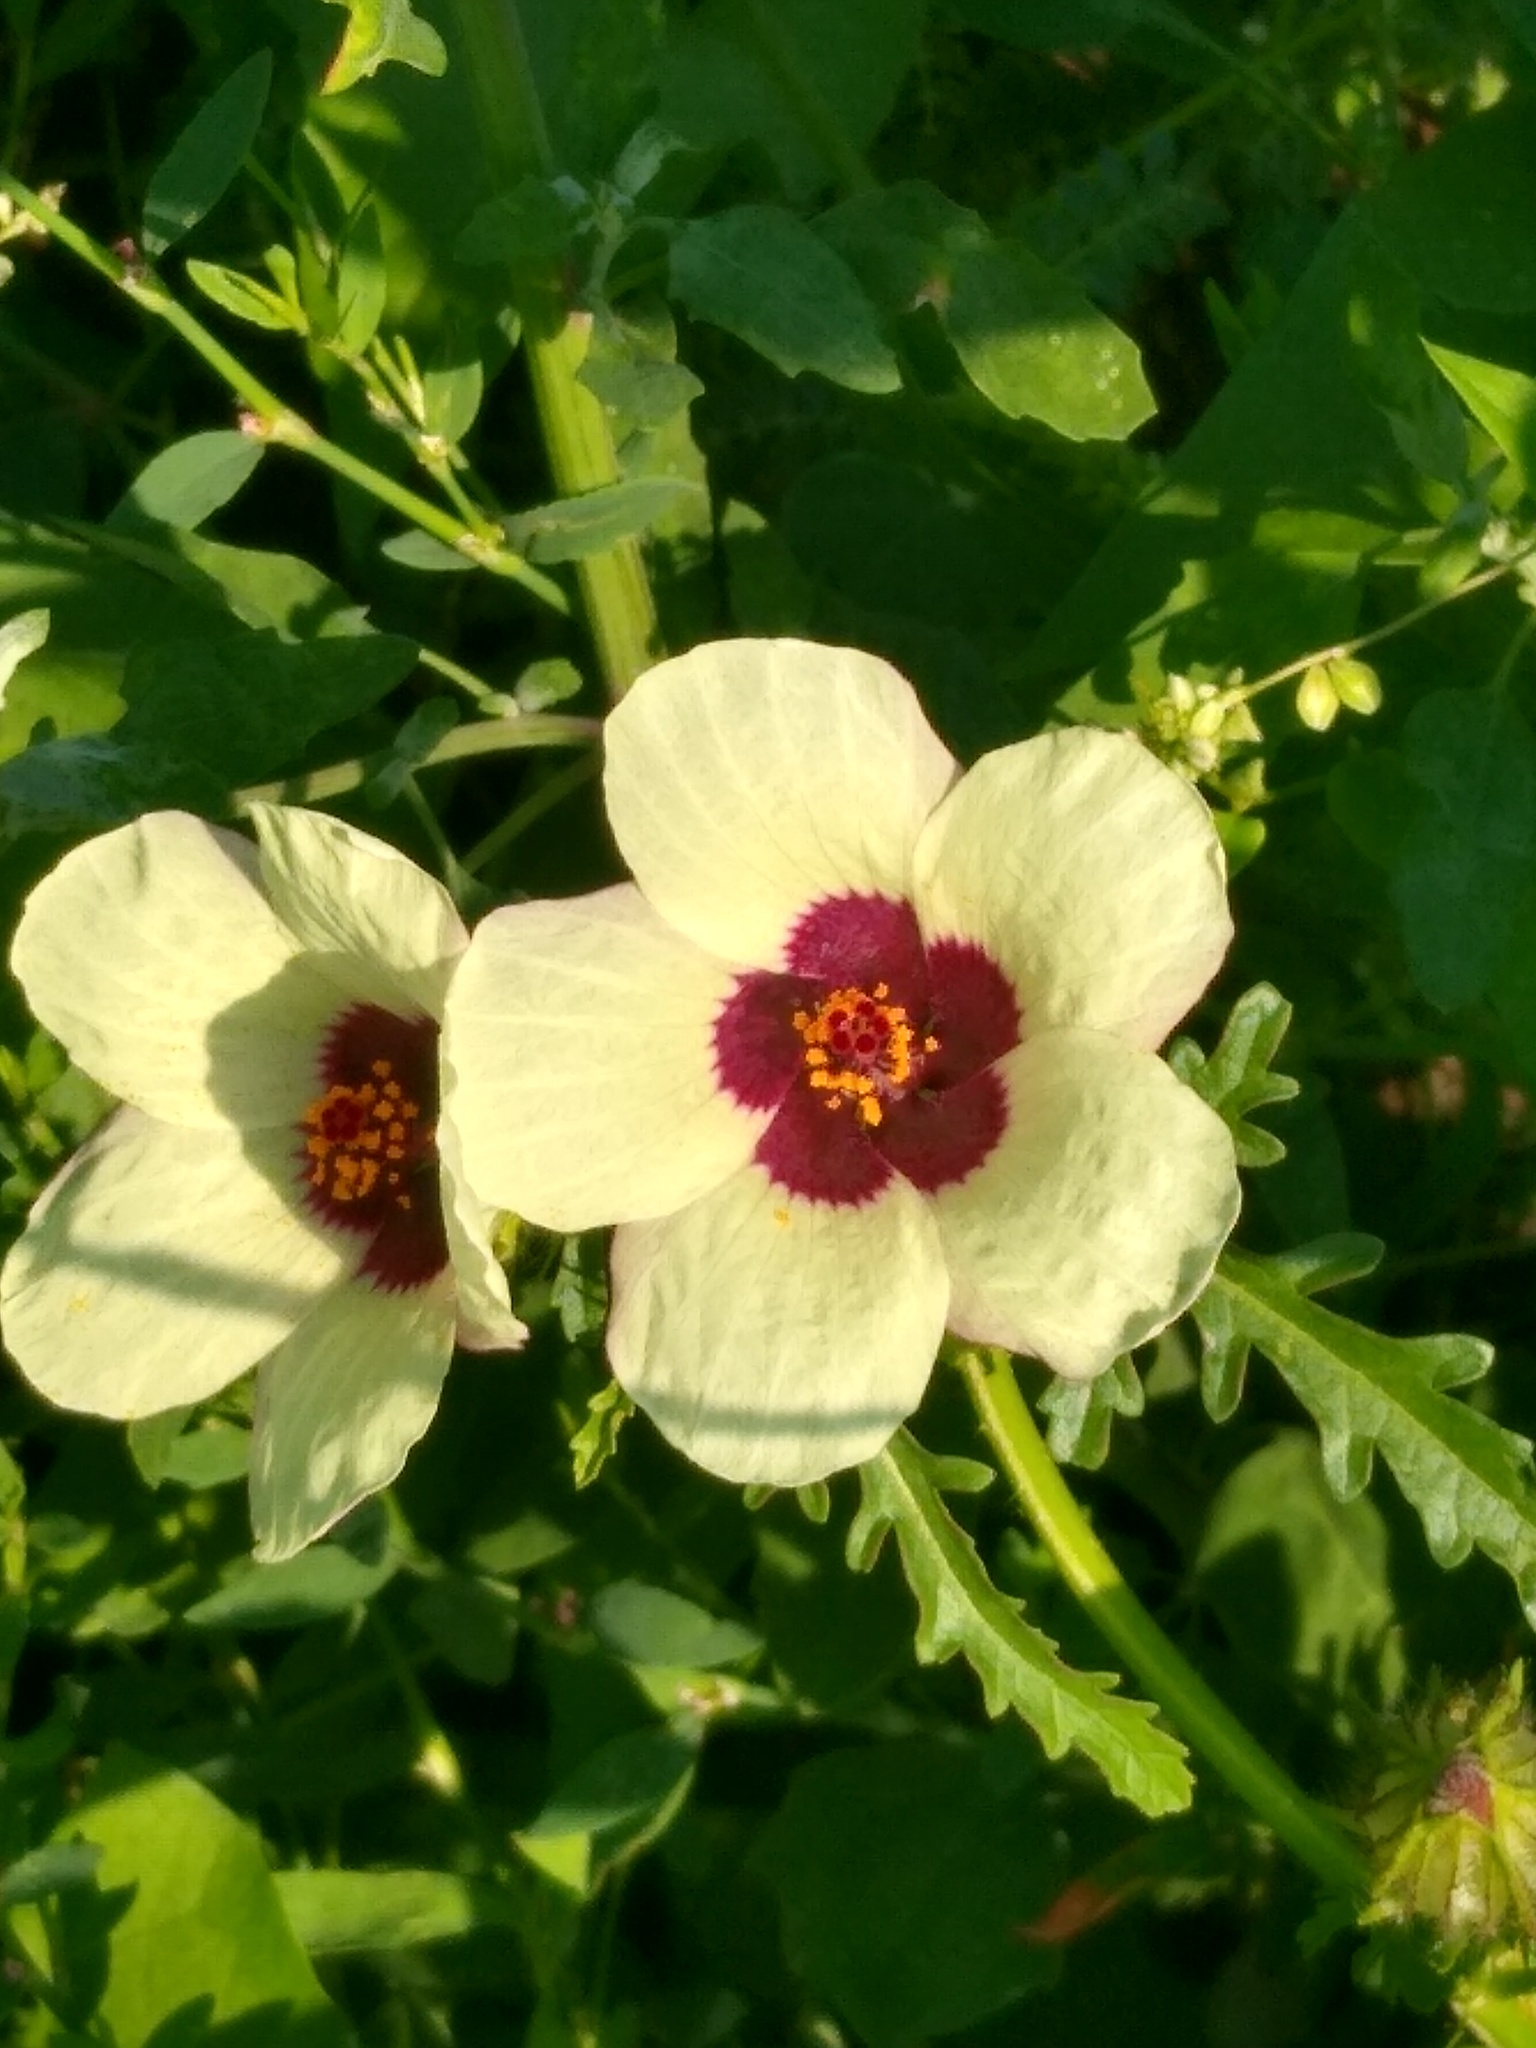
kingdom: Plantae
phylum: Tracheophyta
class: Magnoliopsida
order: Malvales
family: Malvaceae
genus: Hibiscus
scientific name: Hibiscus trionum
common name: Bladder ketmia
